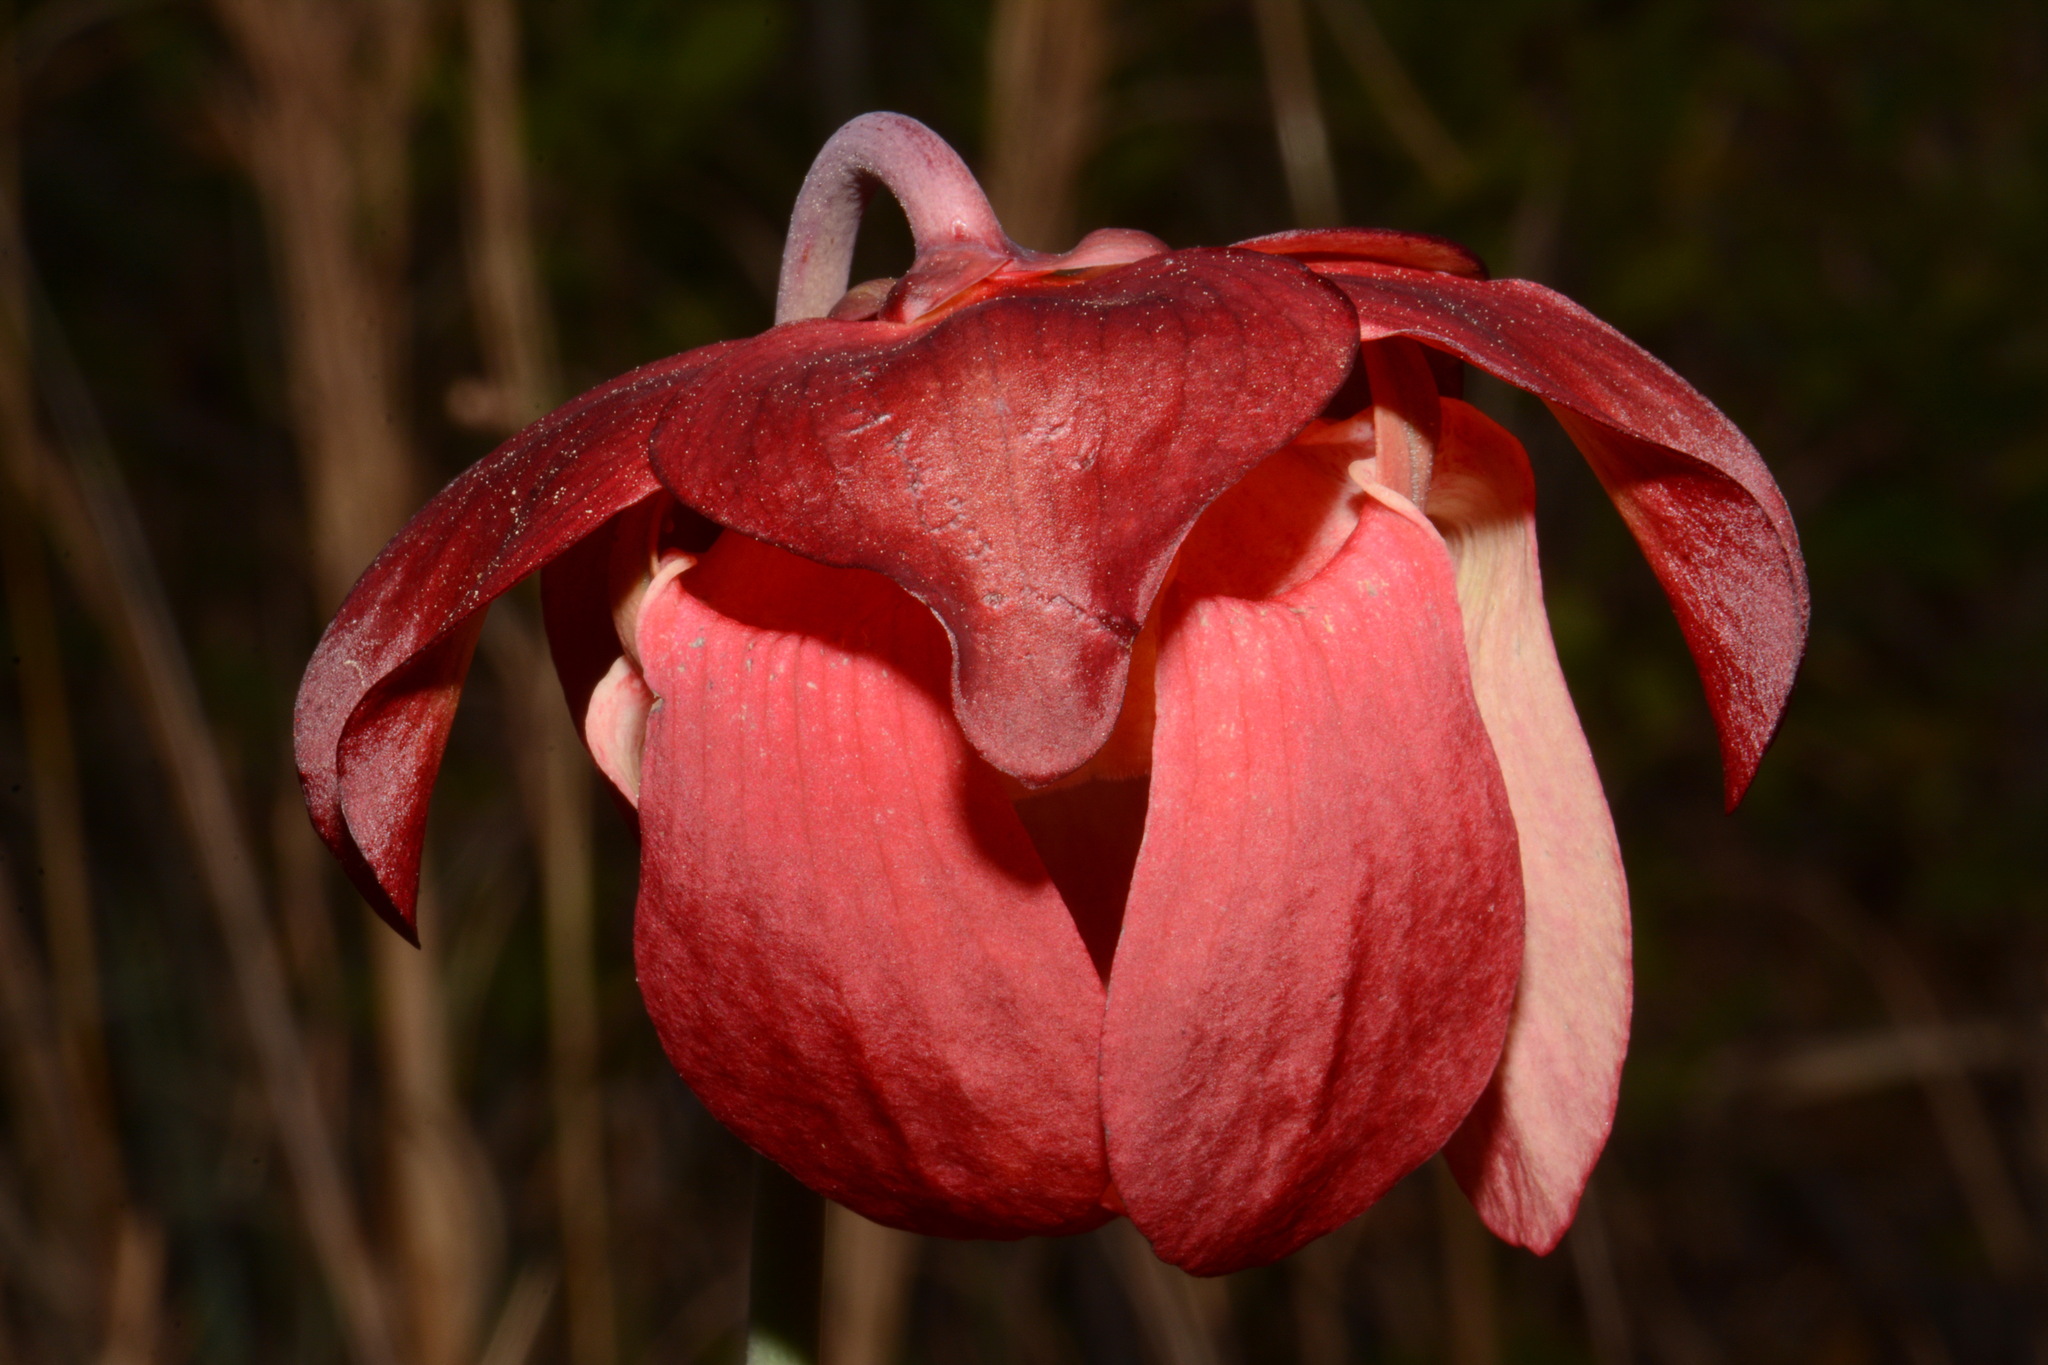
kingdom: Plantae
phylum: Tracheophyta
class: Magnoliopsida
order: Ericales
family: Sarraceniaceae
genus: Sarracenia
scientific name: Sarracenia leucophylla
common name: Purple trumpetleaf
